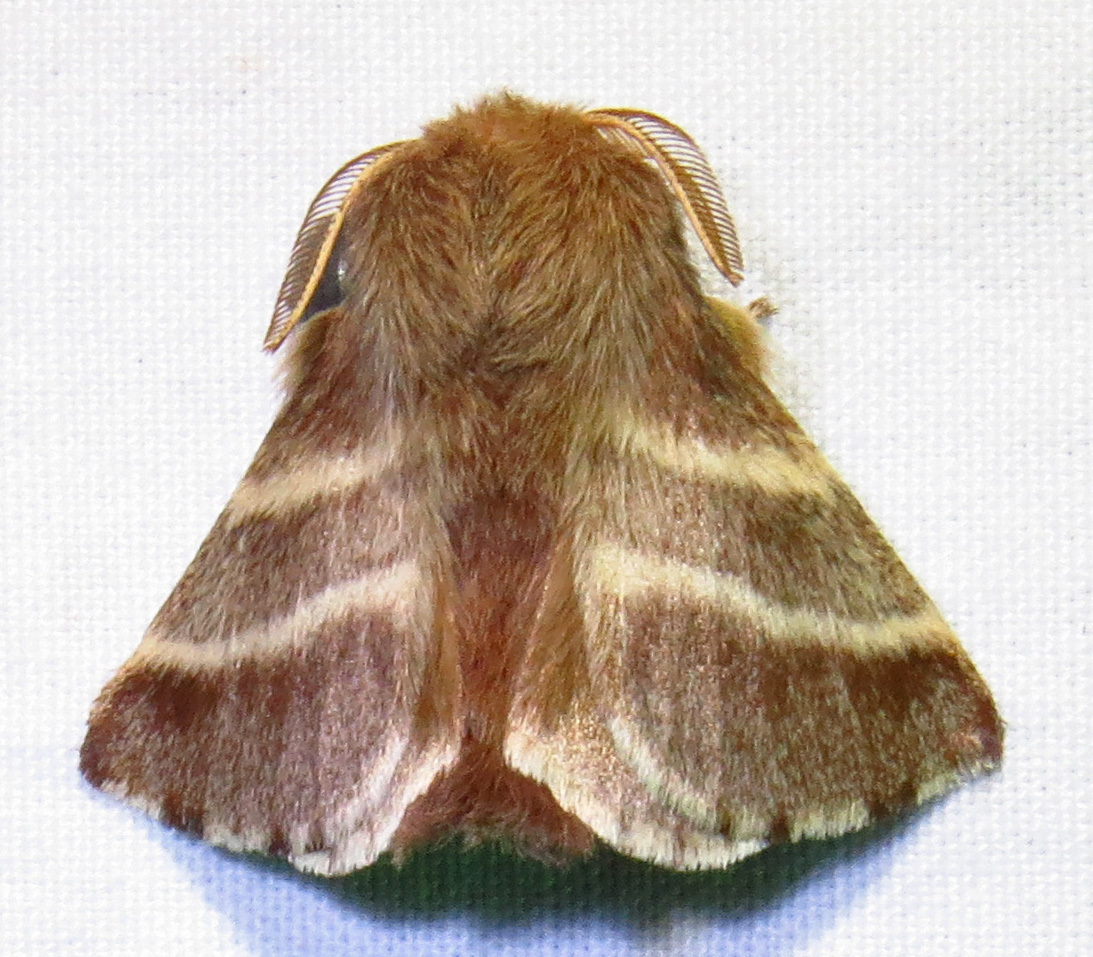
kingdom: Animalia
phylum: Arthropoda
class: Insecta
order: Lepidoptera
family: Lasiocampidae
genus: Malacosoma
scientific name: Malacosoma americana
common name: Eastern tent caterpillar moth
